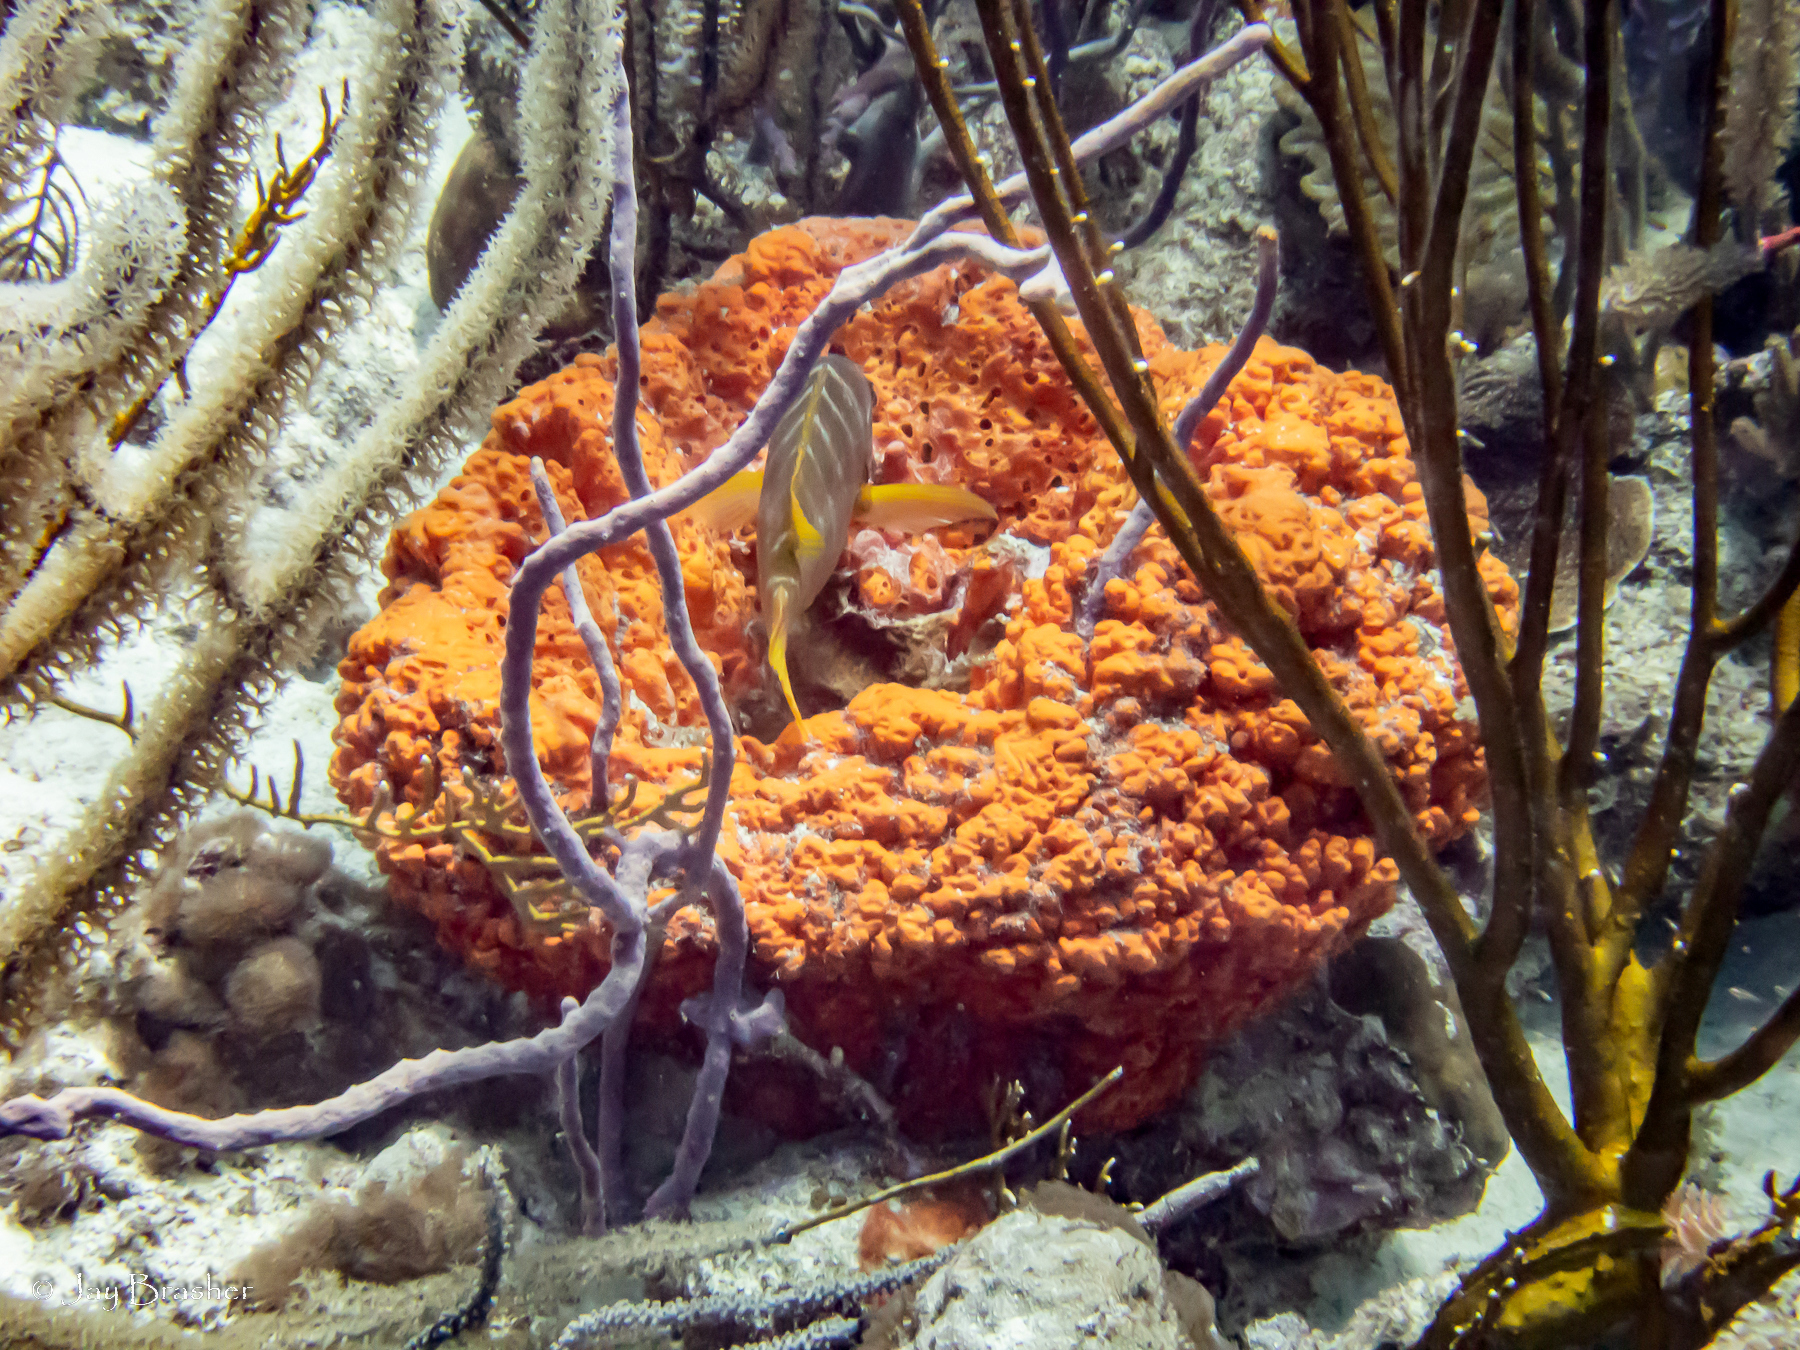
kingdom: Animalia
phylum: Porifera
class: Demospongiae
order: Agelasida
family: Agelasidae
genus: Agelas
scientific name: Agelas clathrodes
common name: Orange elephant ear sponge
